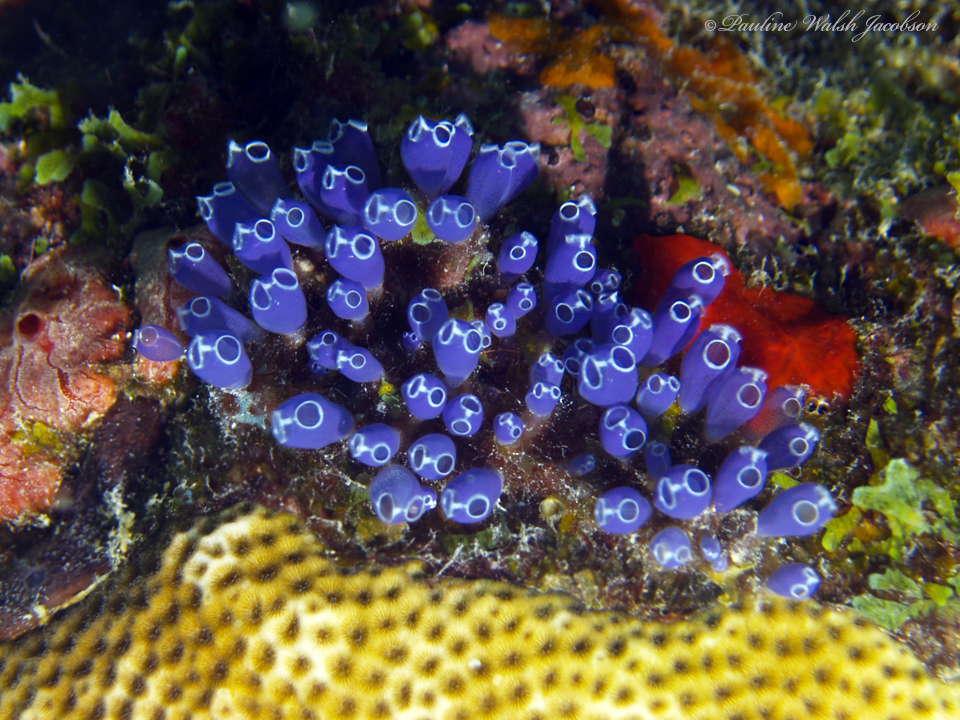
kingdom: Animalia
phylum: Chordata
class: Ascidiacea
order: Aplousobranchia
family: Clavelinidae
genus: Clavelina
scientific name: Clavelina puertosecensis
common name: Blue bell tunicate
